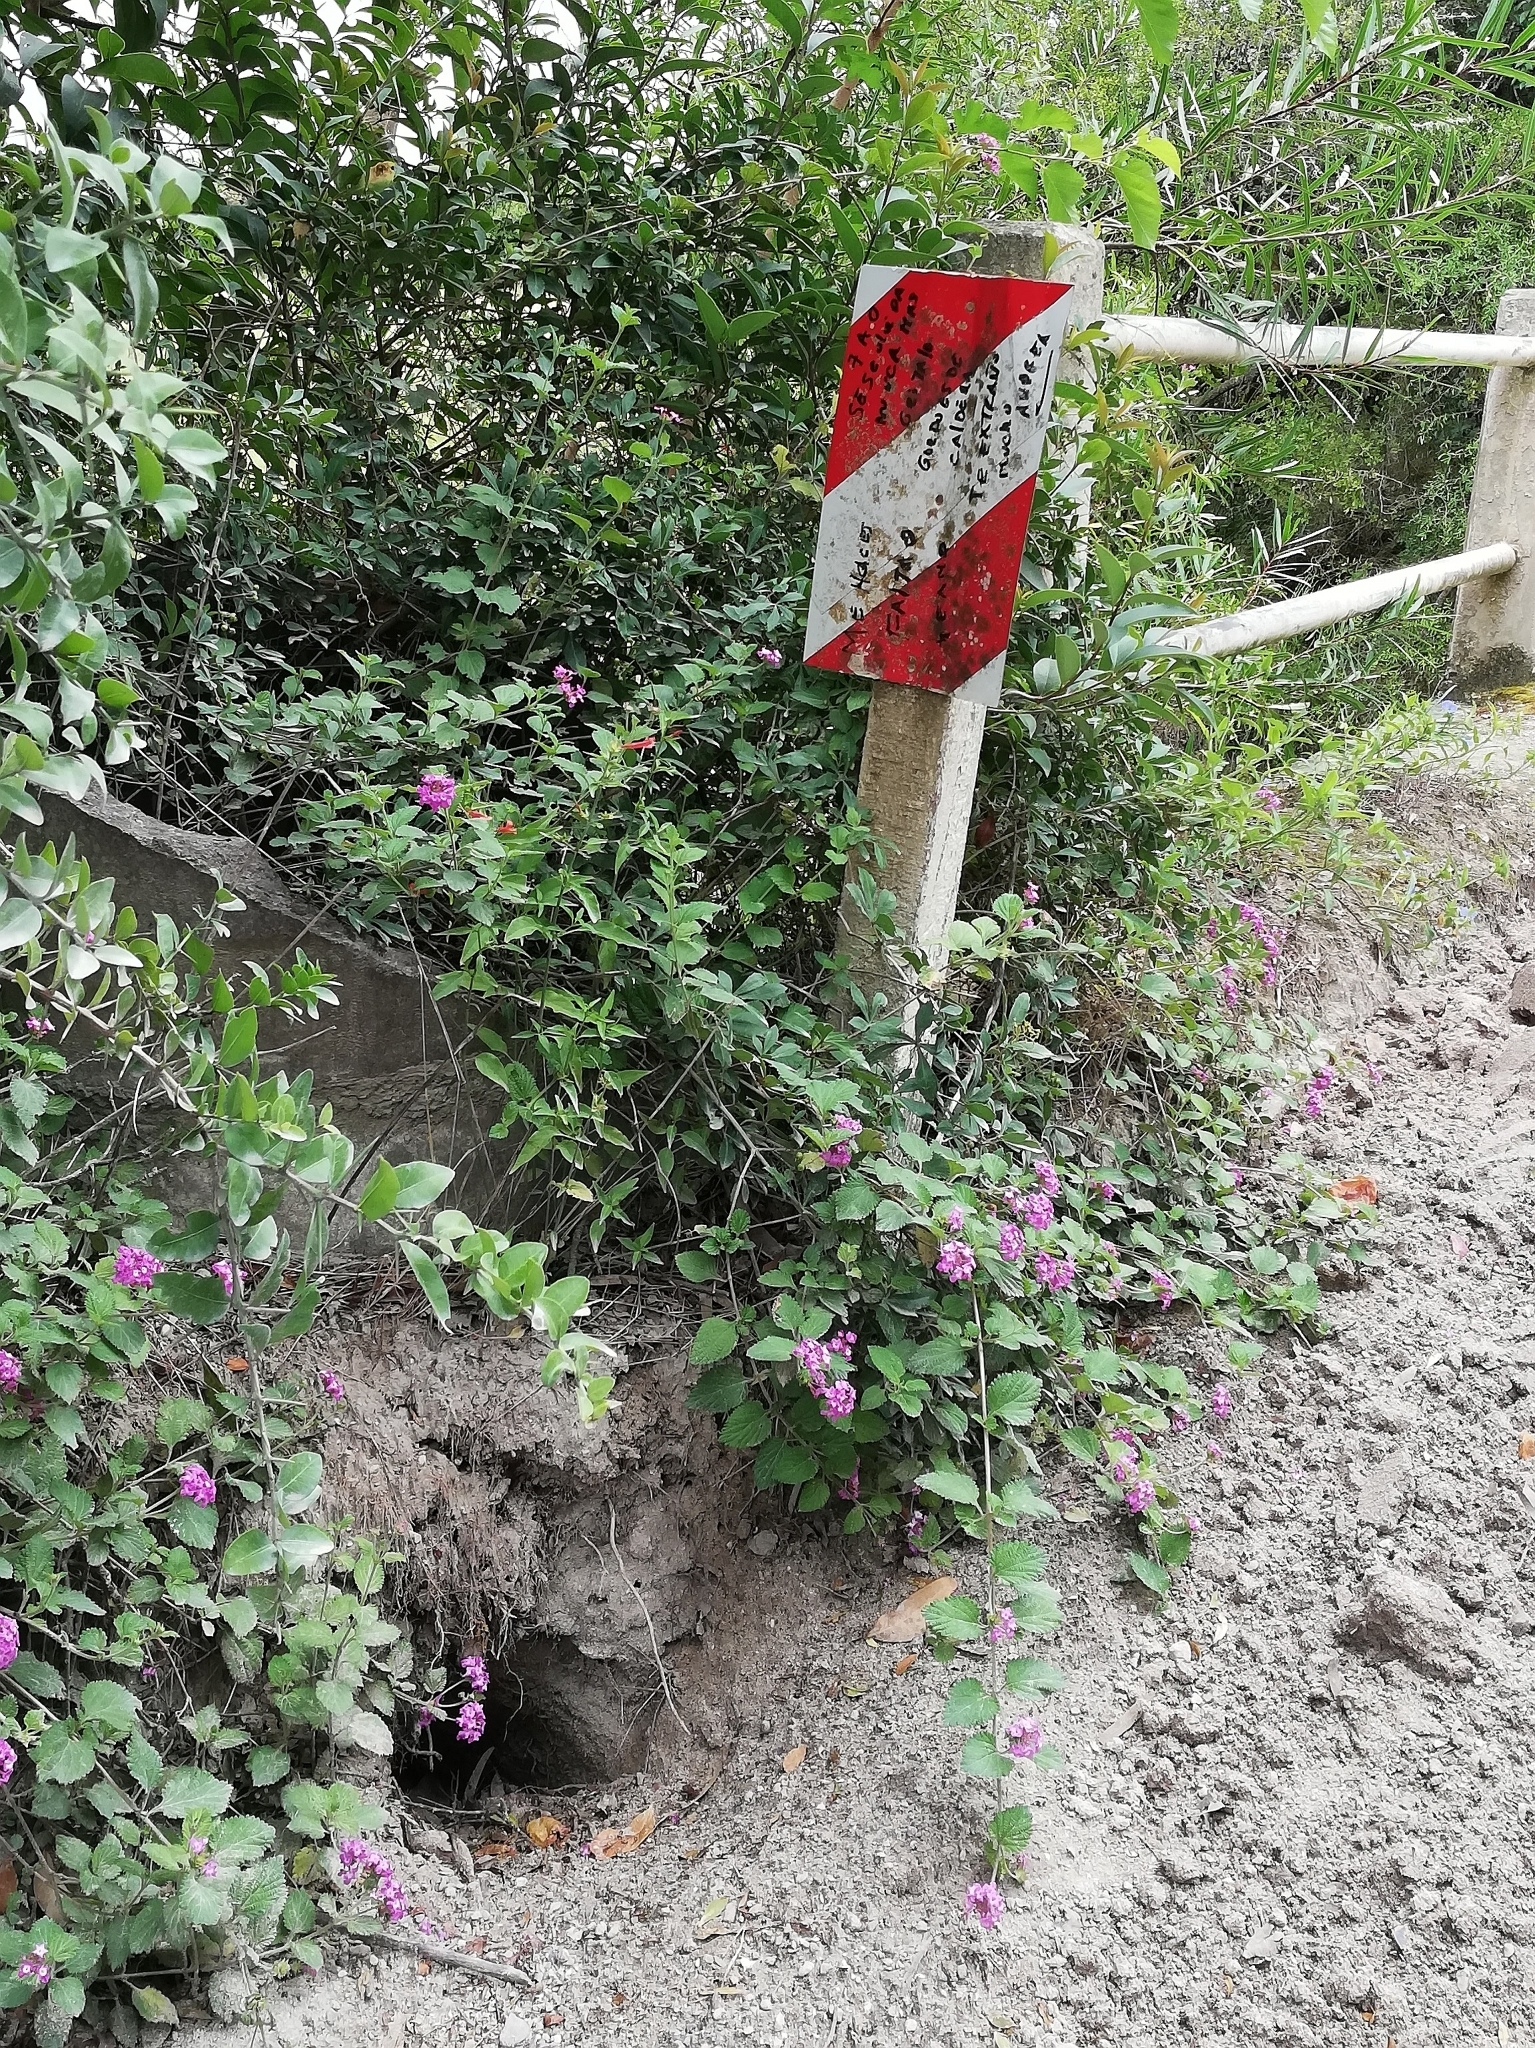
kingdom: Plantae
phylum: Tracheophyta
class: Magnoliopsida
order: Lamiales
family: Verbenaceae
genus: Lantana
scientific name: Lantana montevidensis
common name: Trailing shrubverbena
